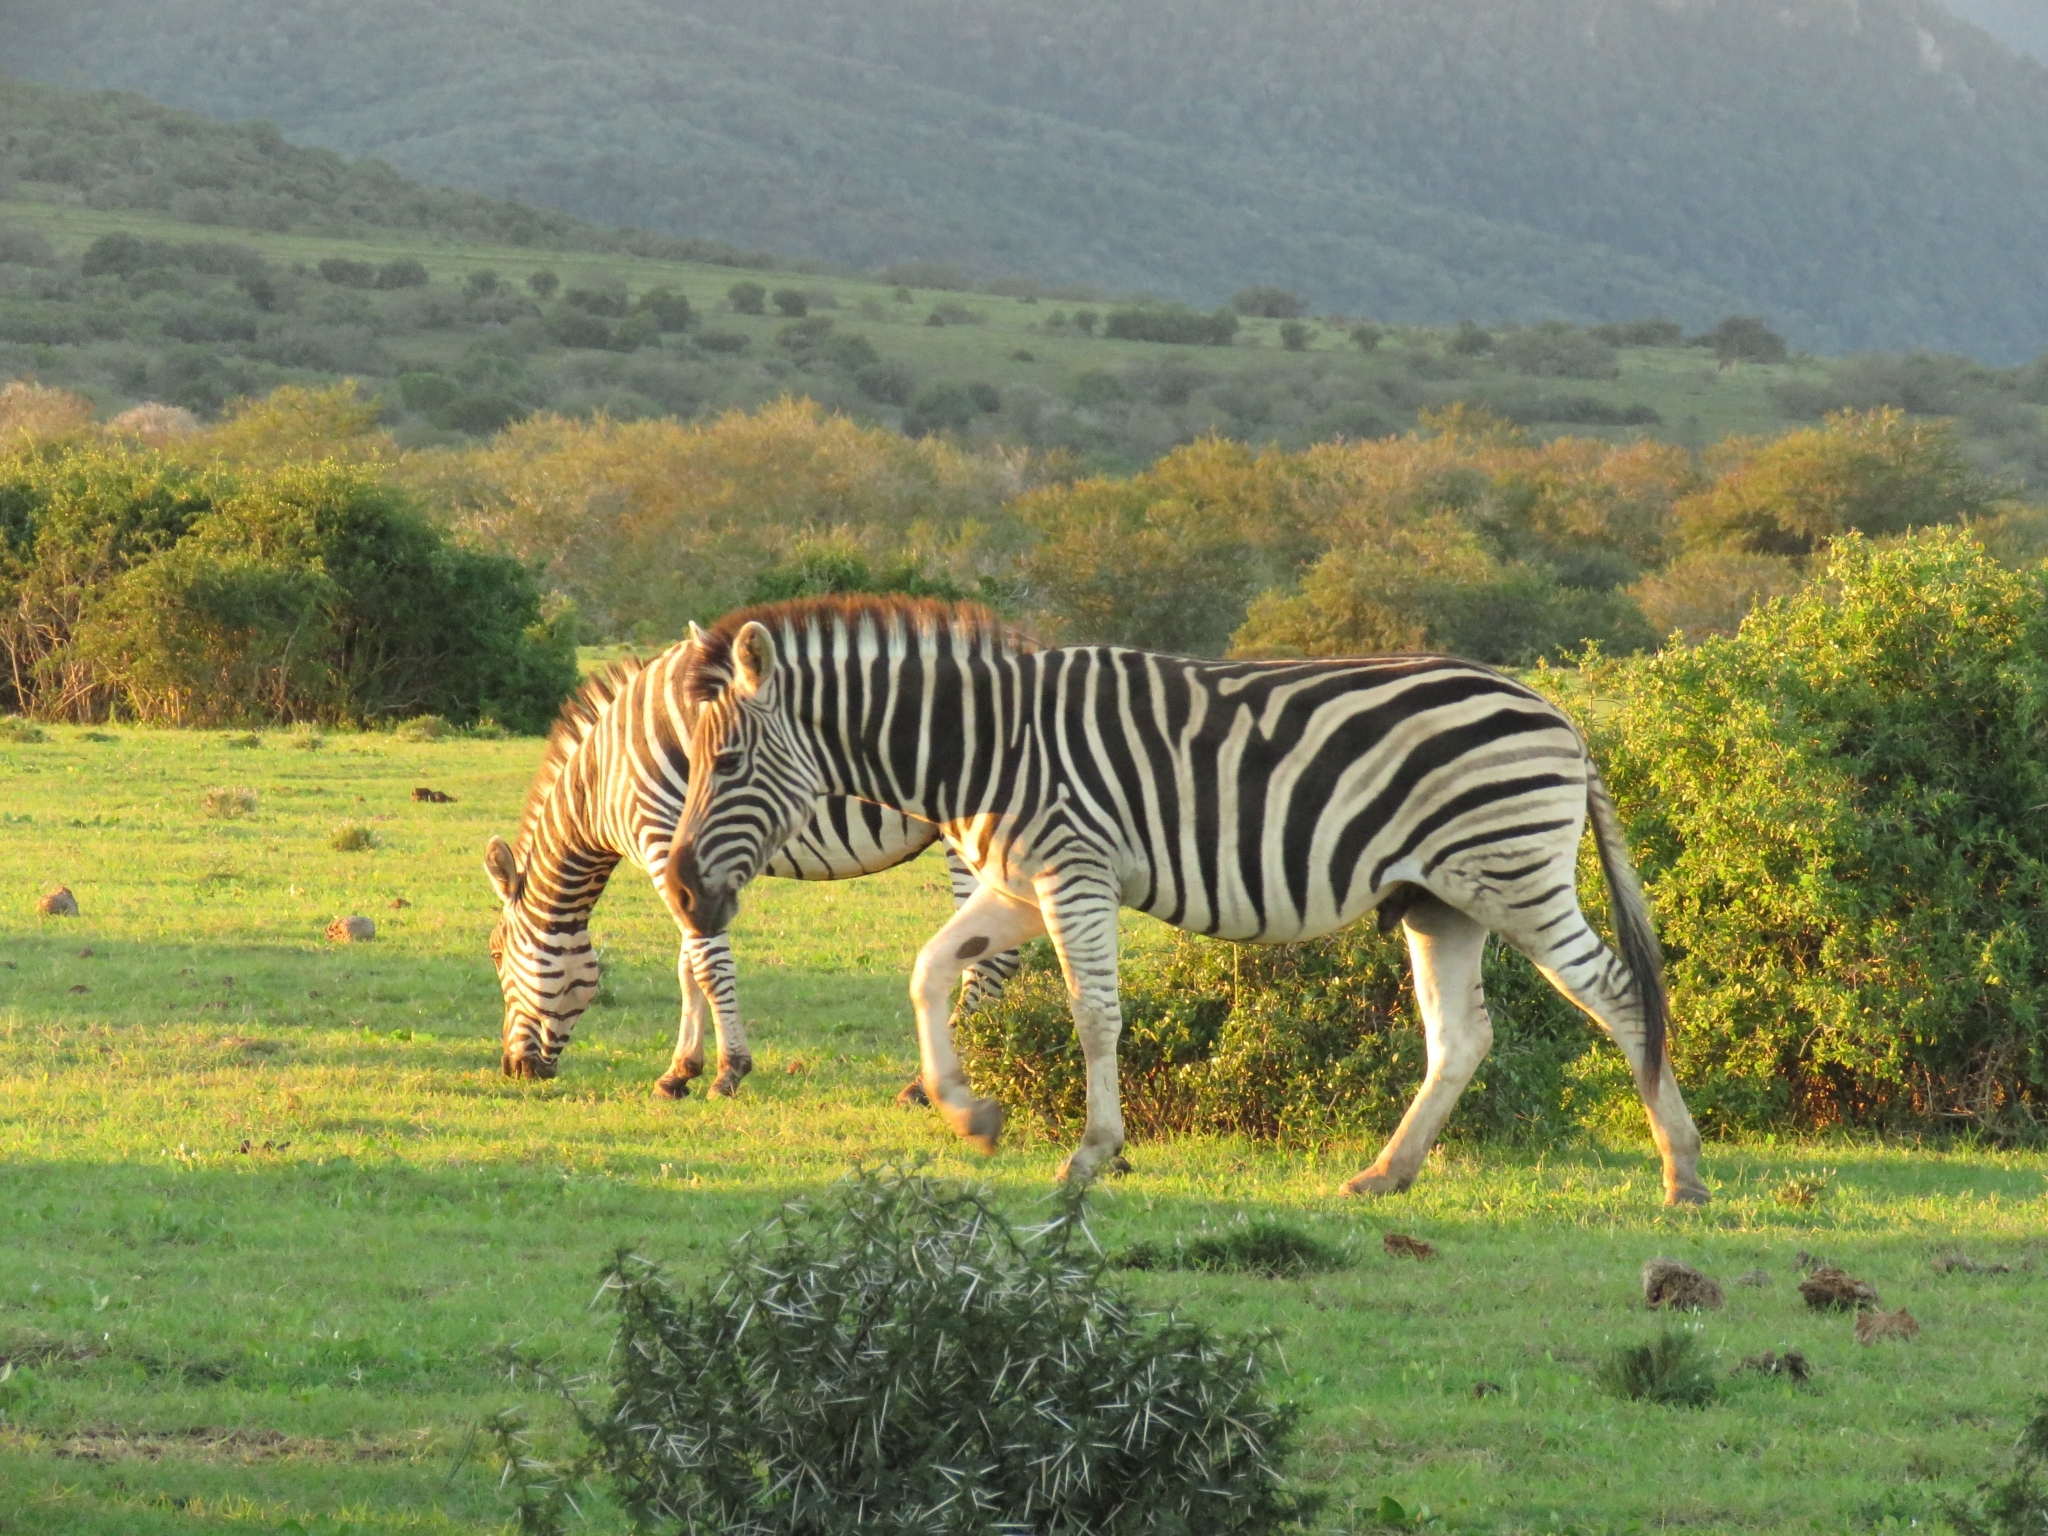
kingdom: Animalia
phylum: Chordata
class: Mammalia
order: Perissodactyla
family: Equidae
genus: Equus
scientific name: Equus quagga
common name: Plains zebra
